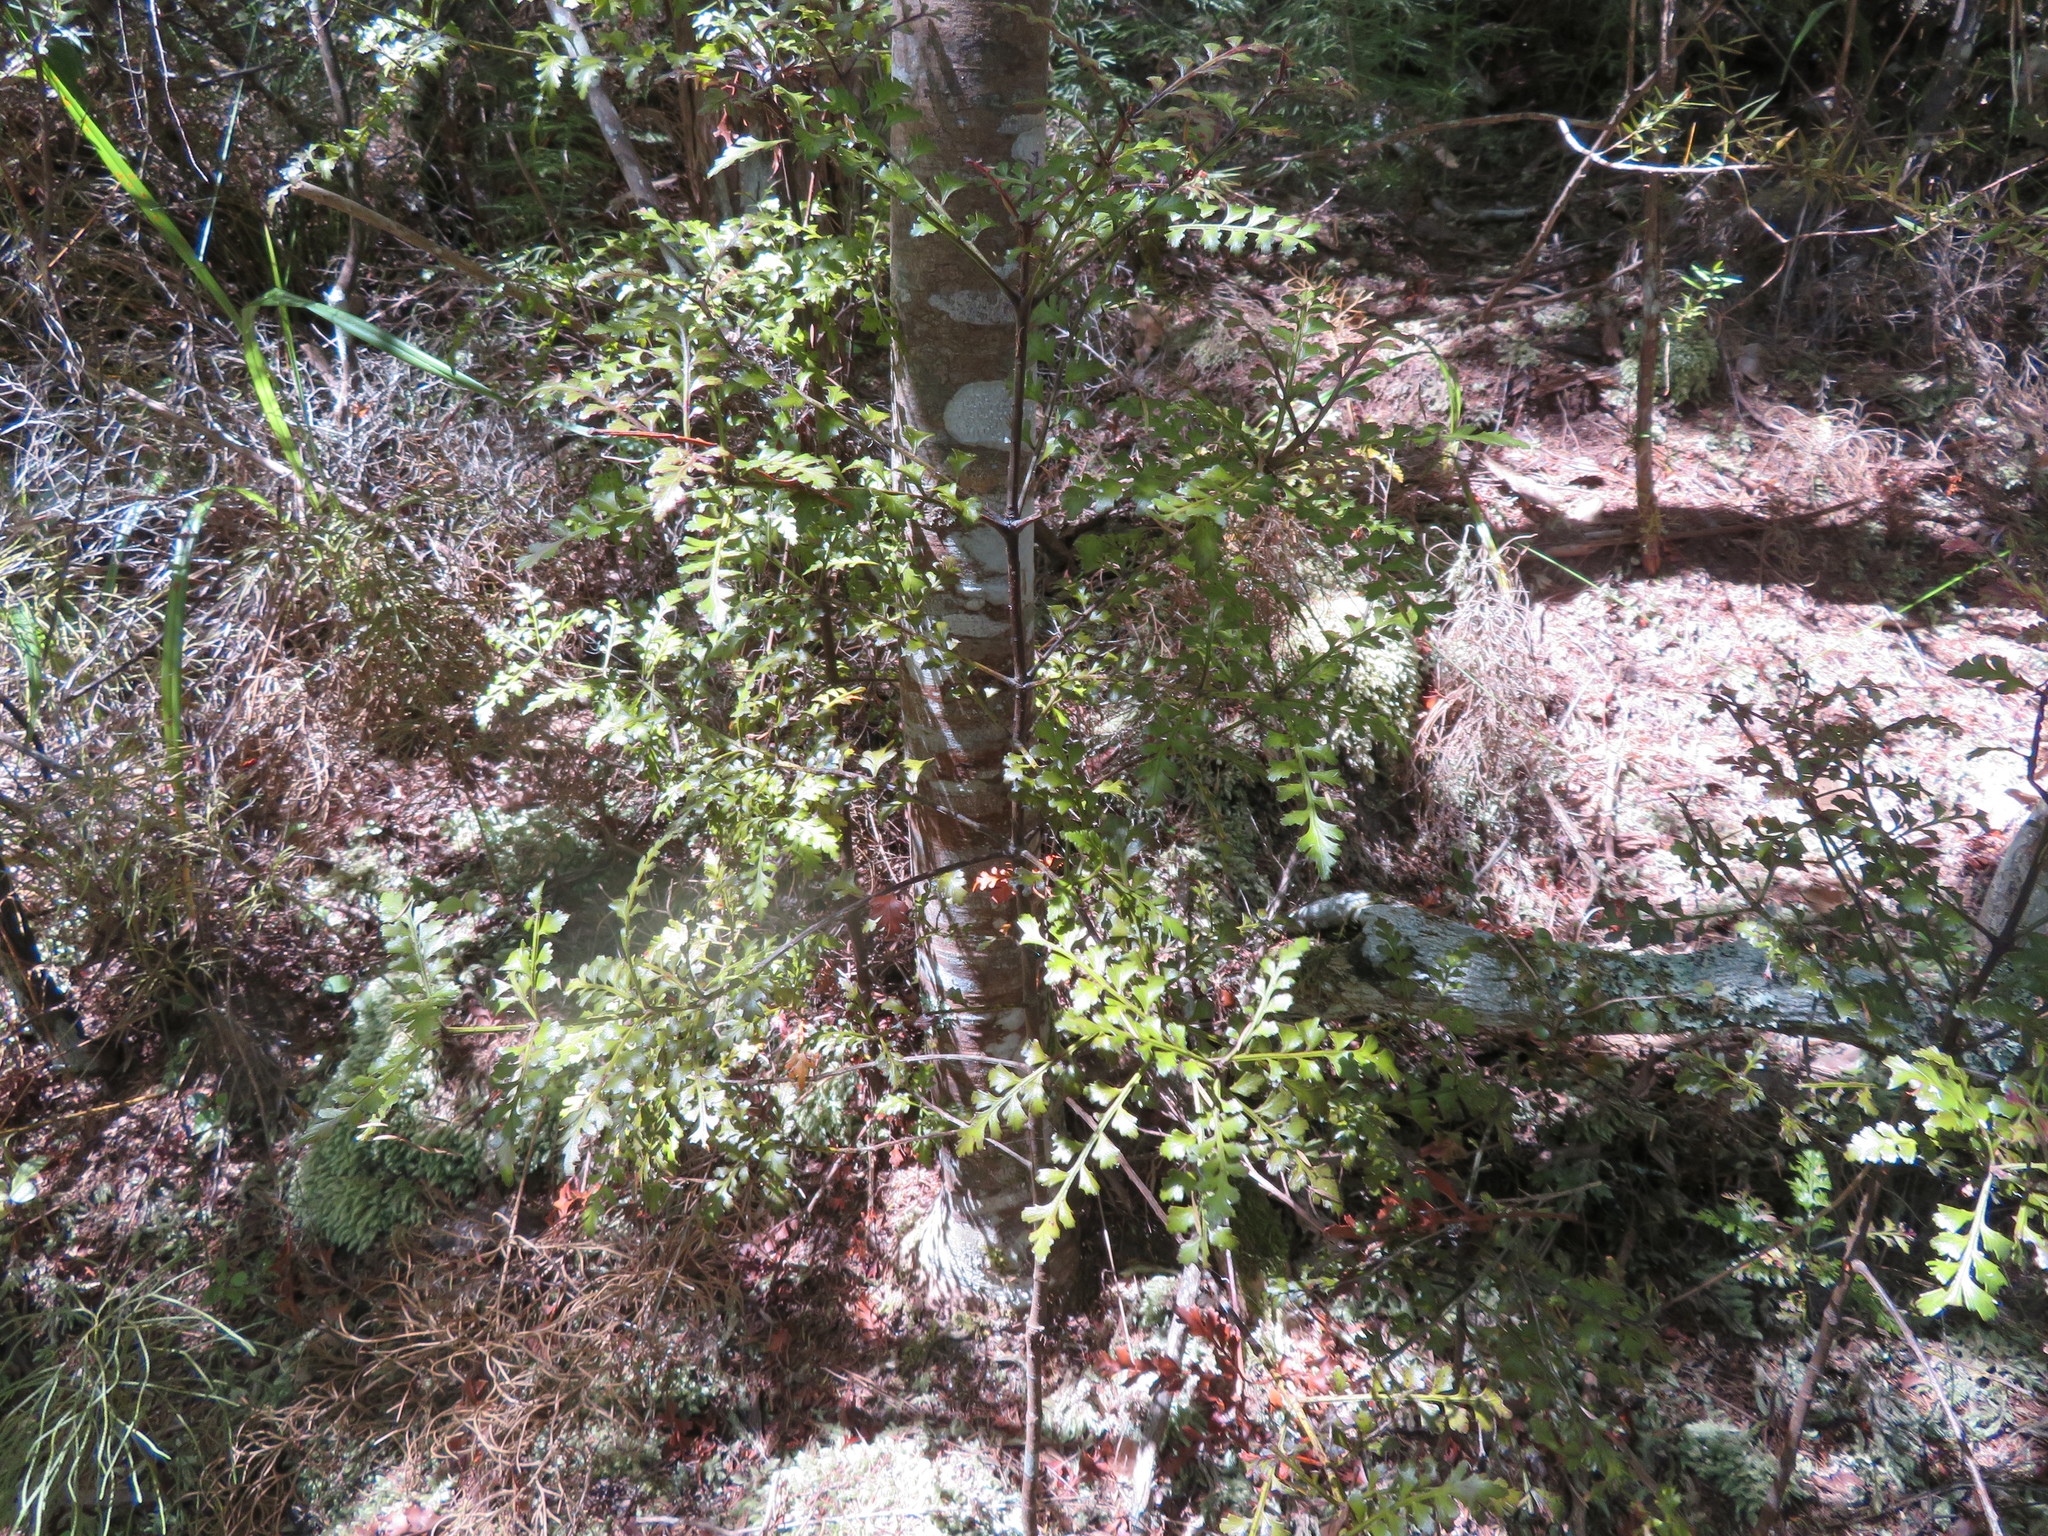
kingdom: Plantae
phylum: Tracheophyta
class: Pinopsida
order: Pinales
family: Phyllocladaceae
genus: Phyllocladus
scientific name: Phyllocladus trichomanoides
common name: Celery pine
